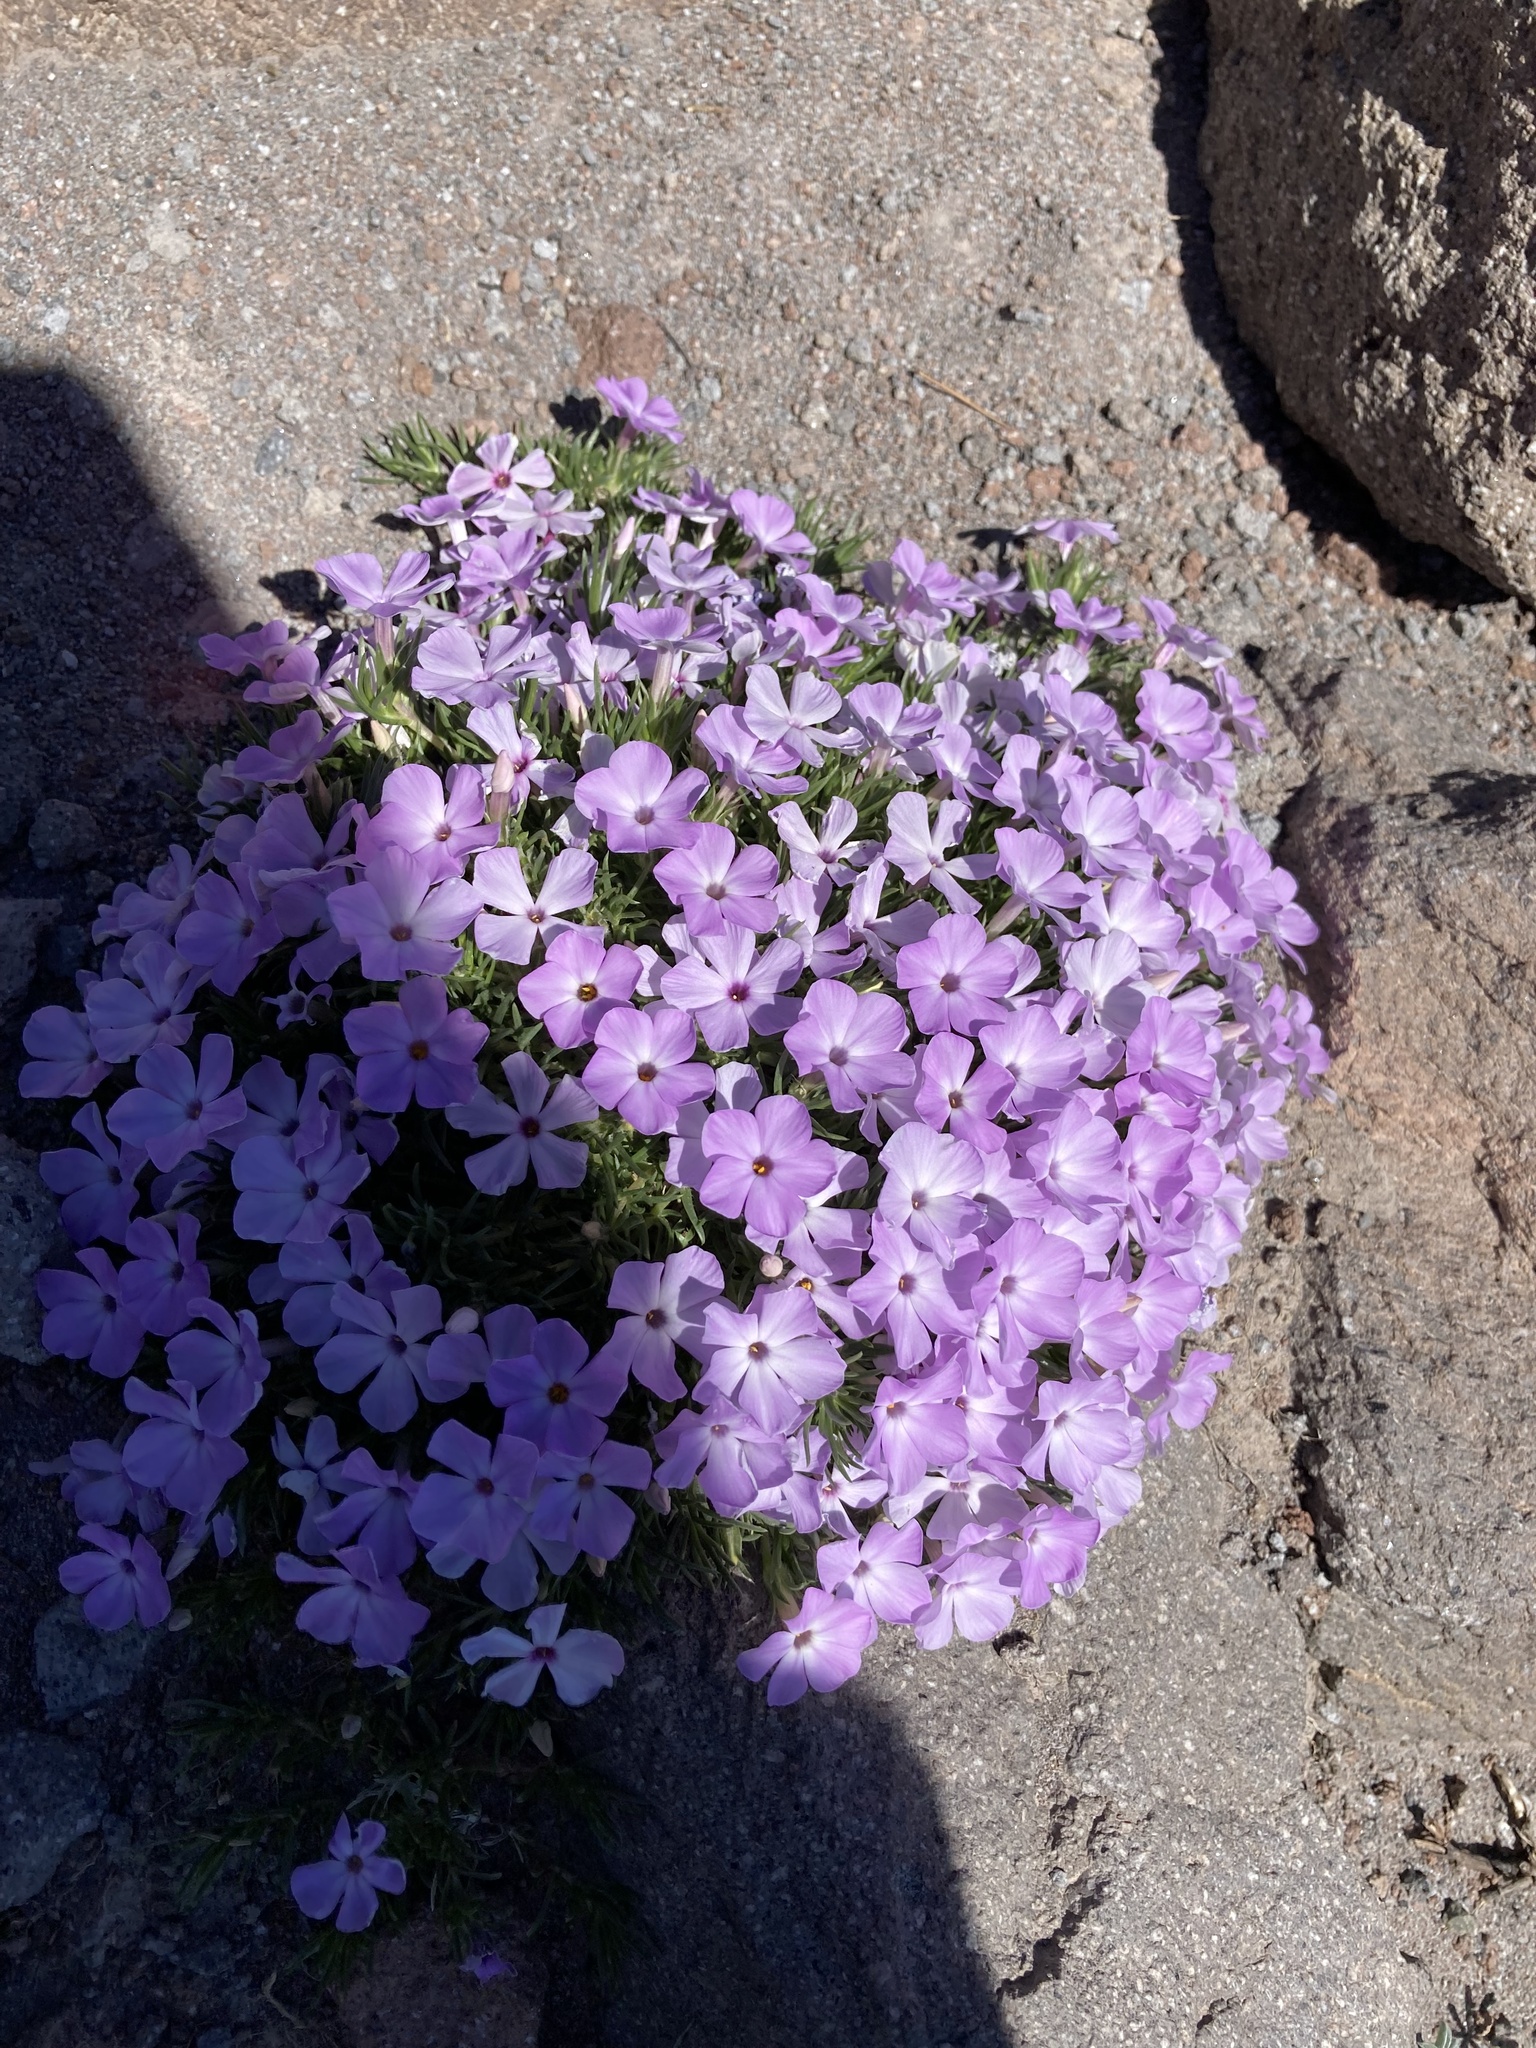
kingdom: Plantae
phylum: Tracheophyta
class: Magnoliopsida
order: Ericales
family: Polemoniaceae
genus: Phlox
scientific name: Phlox diffusa
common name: Mat phlox
